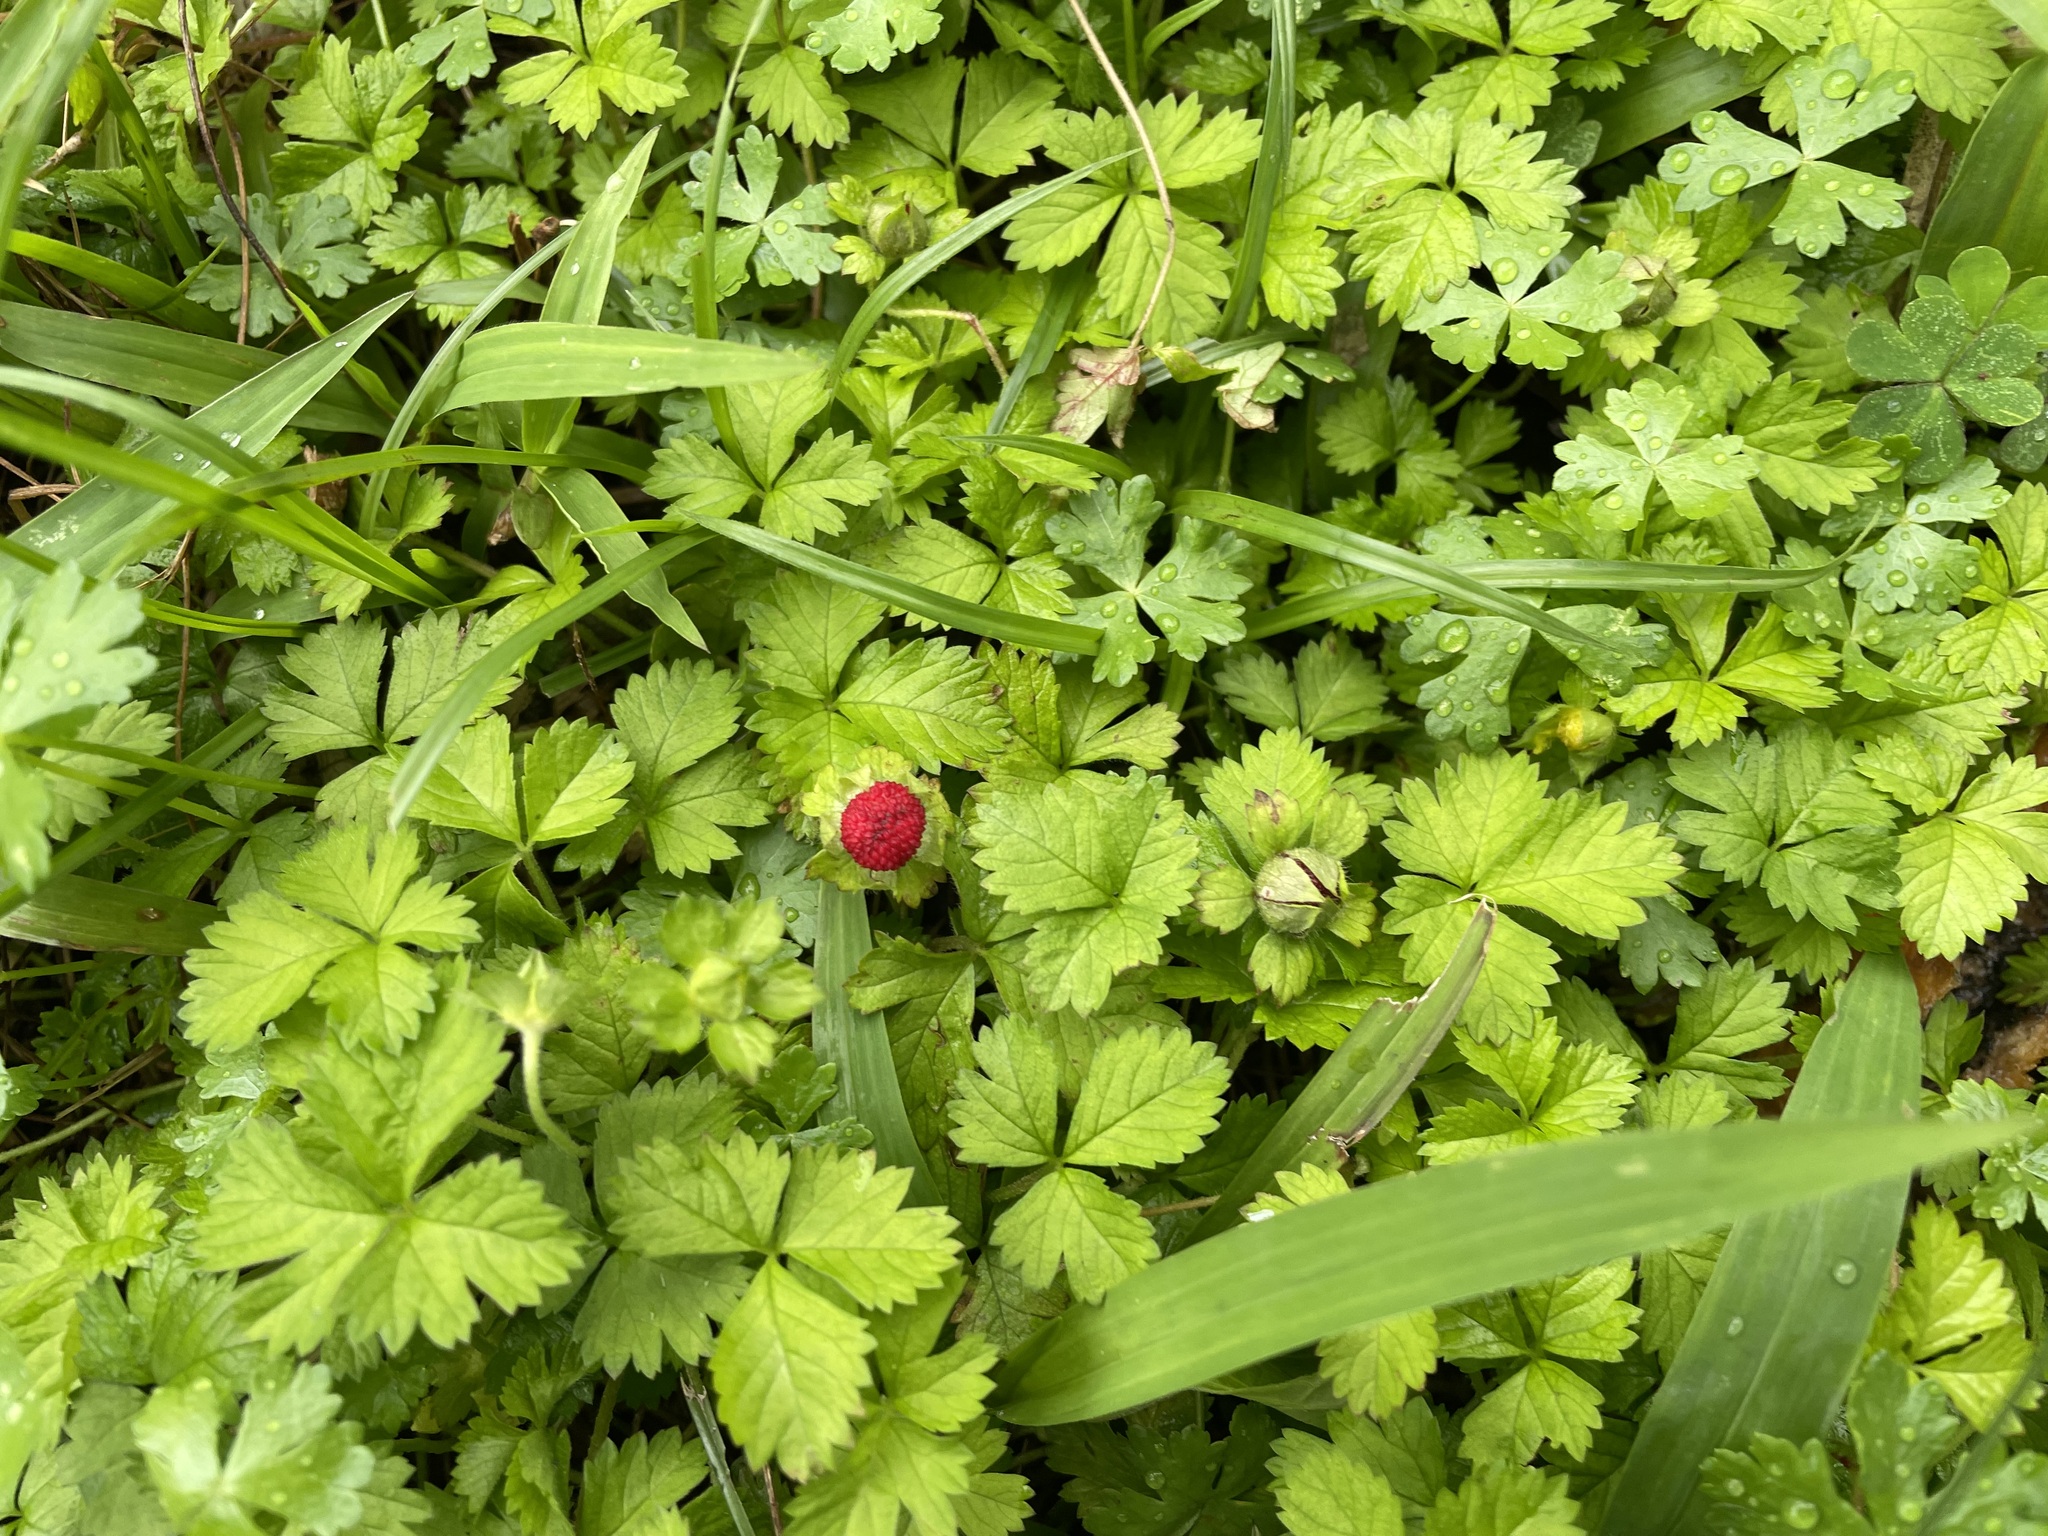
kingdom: Plantae
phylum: Tracheophyta
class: Magnoliopsida
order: Rosales
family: Rosaceae
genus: Potentilla
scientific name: Potentilla wallichiana
